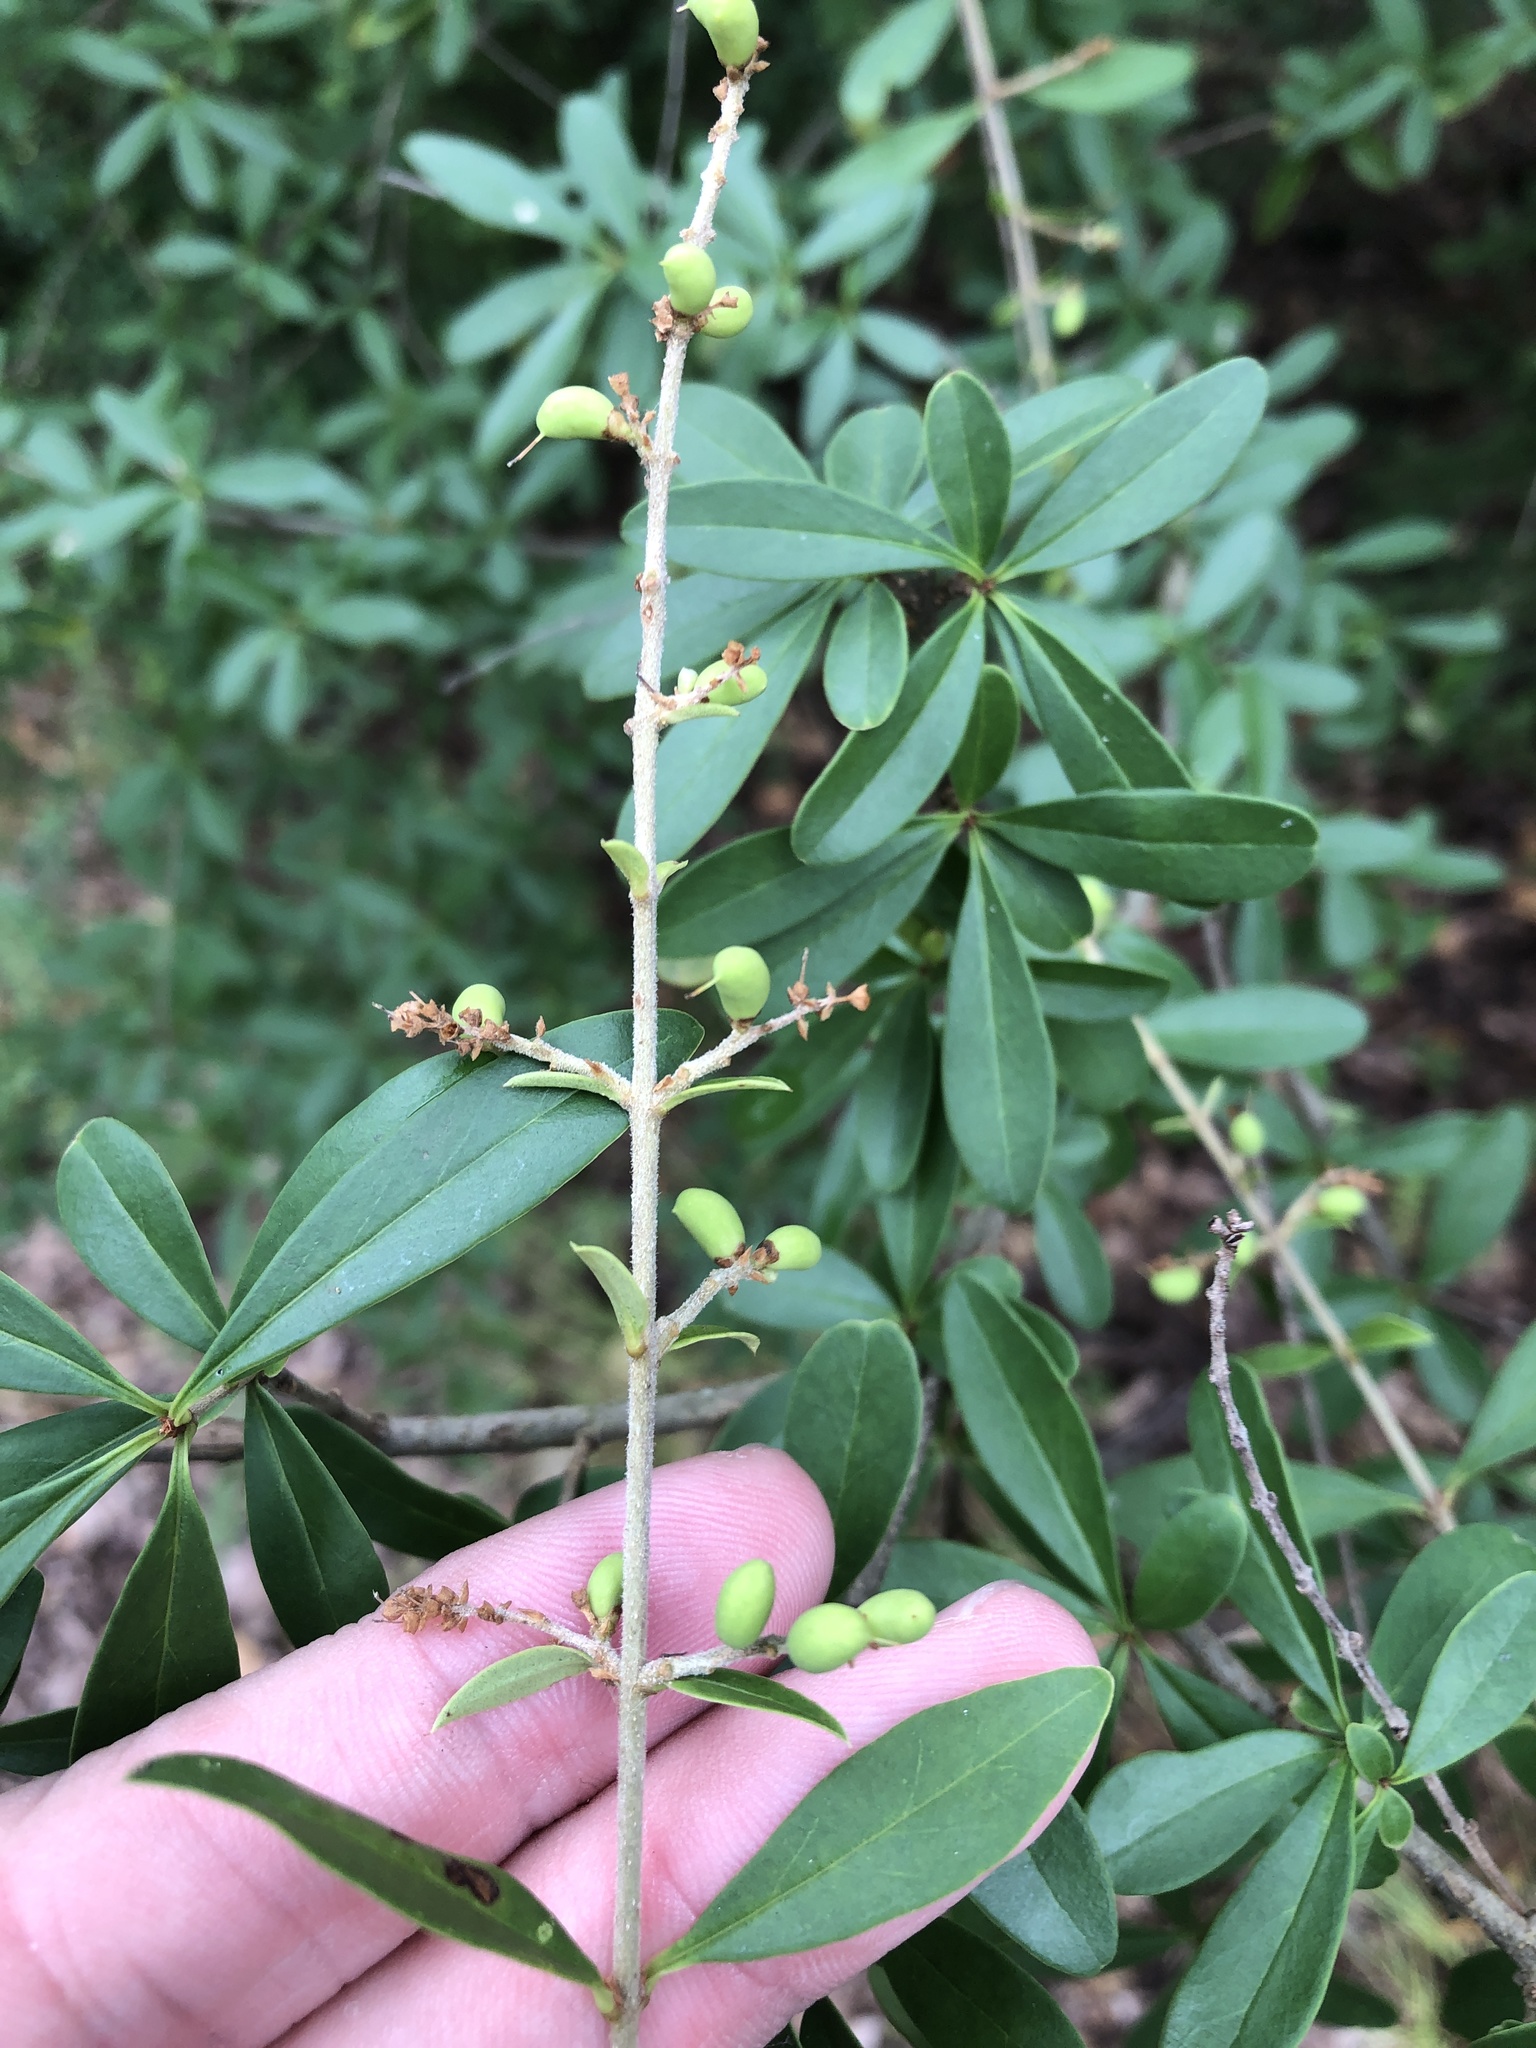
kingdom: Plantae
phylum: Tracheophyta
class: Magnoliopsida
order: Lamiales
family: Oleaceae
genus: Ligustrum
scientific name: Ligustrum quihoui
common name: Waxyleaf privet
